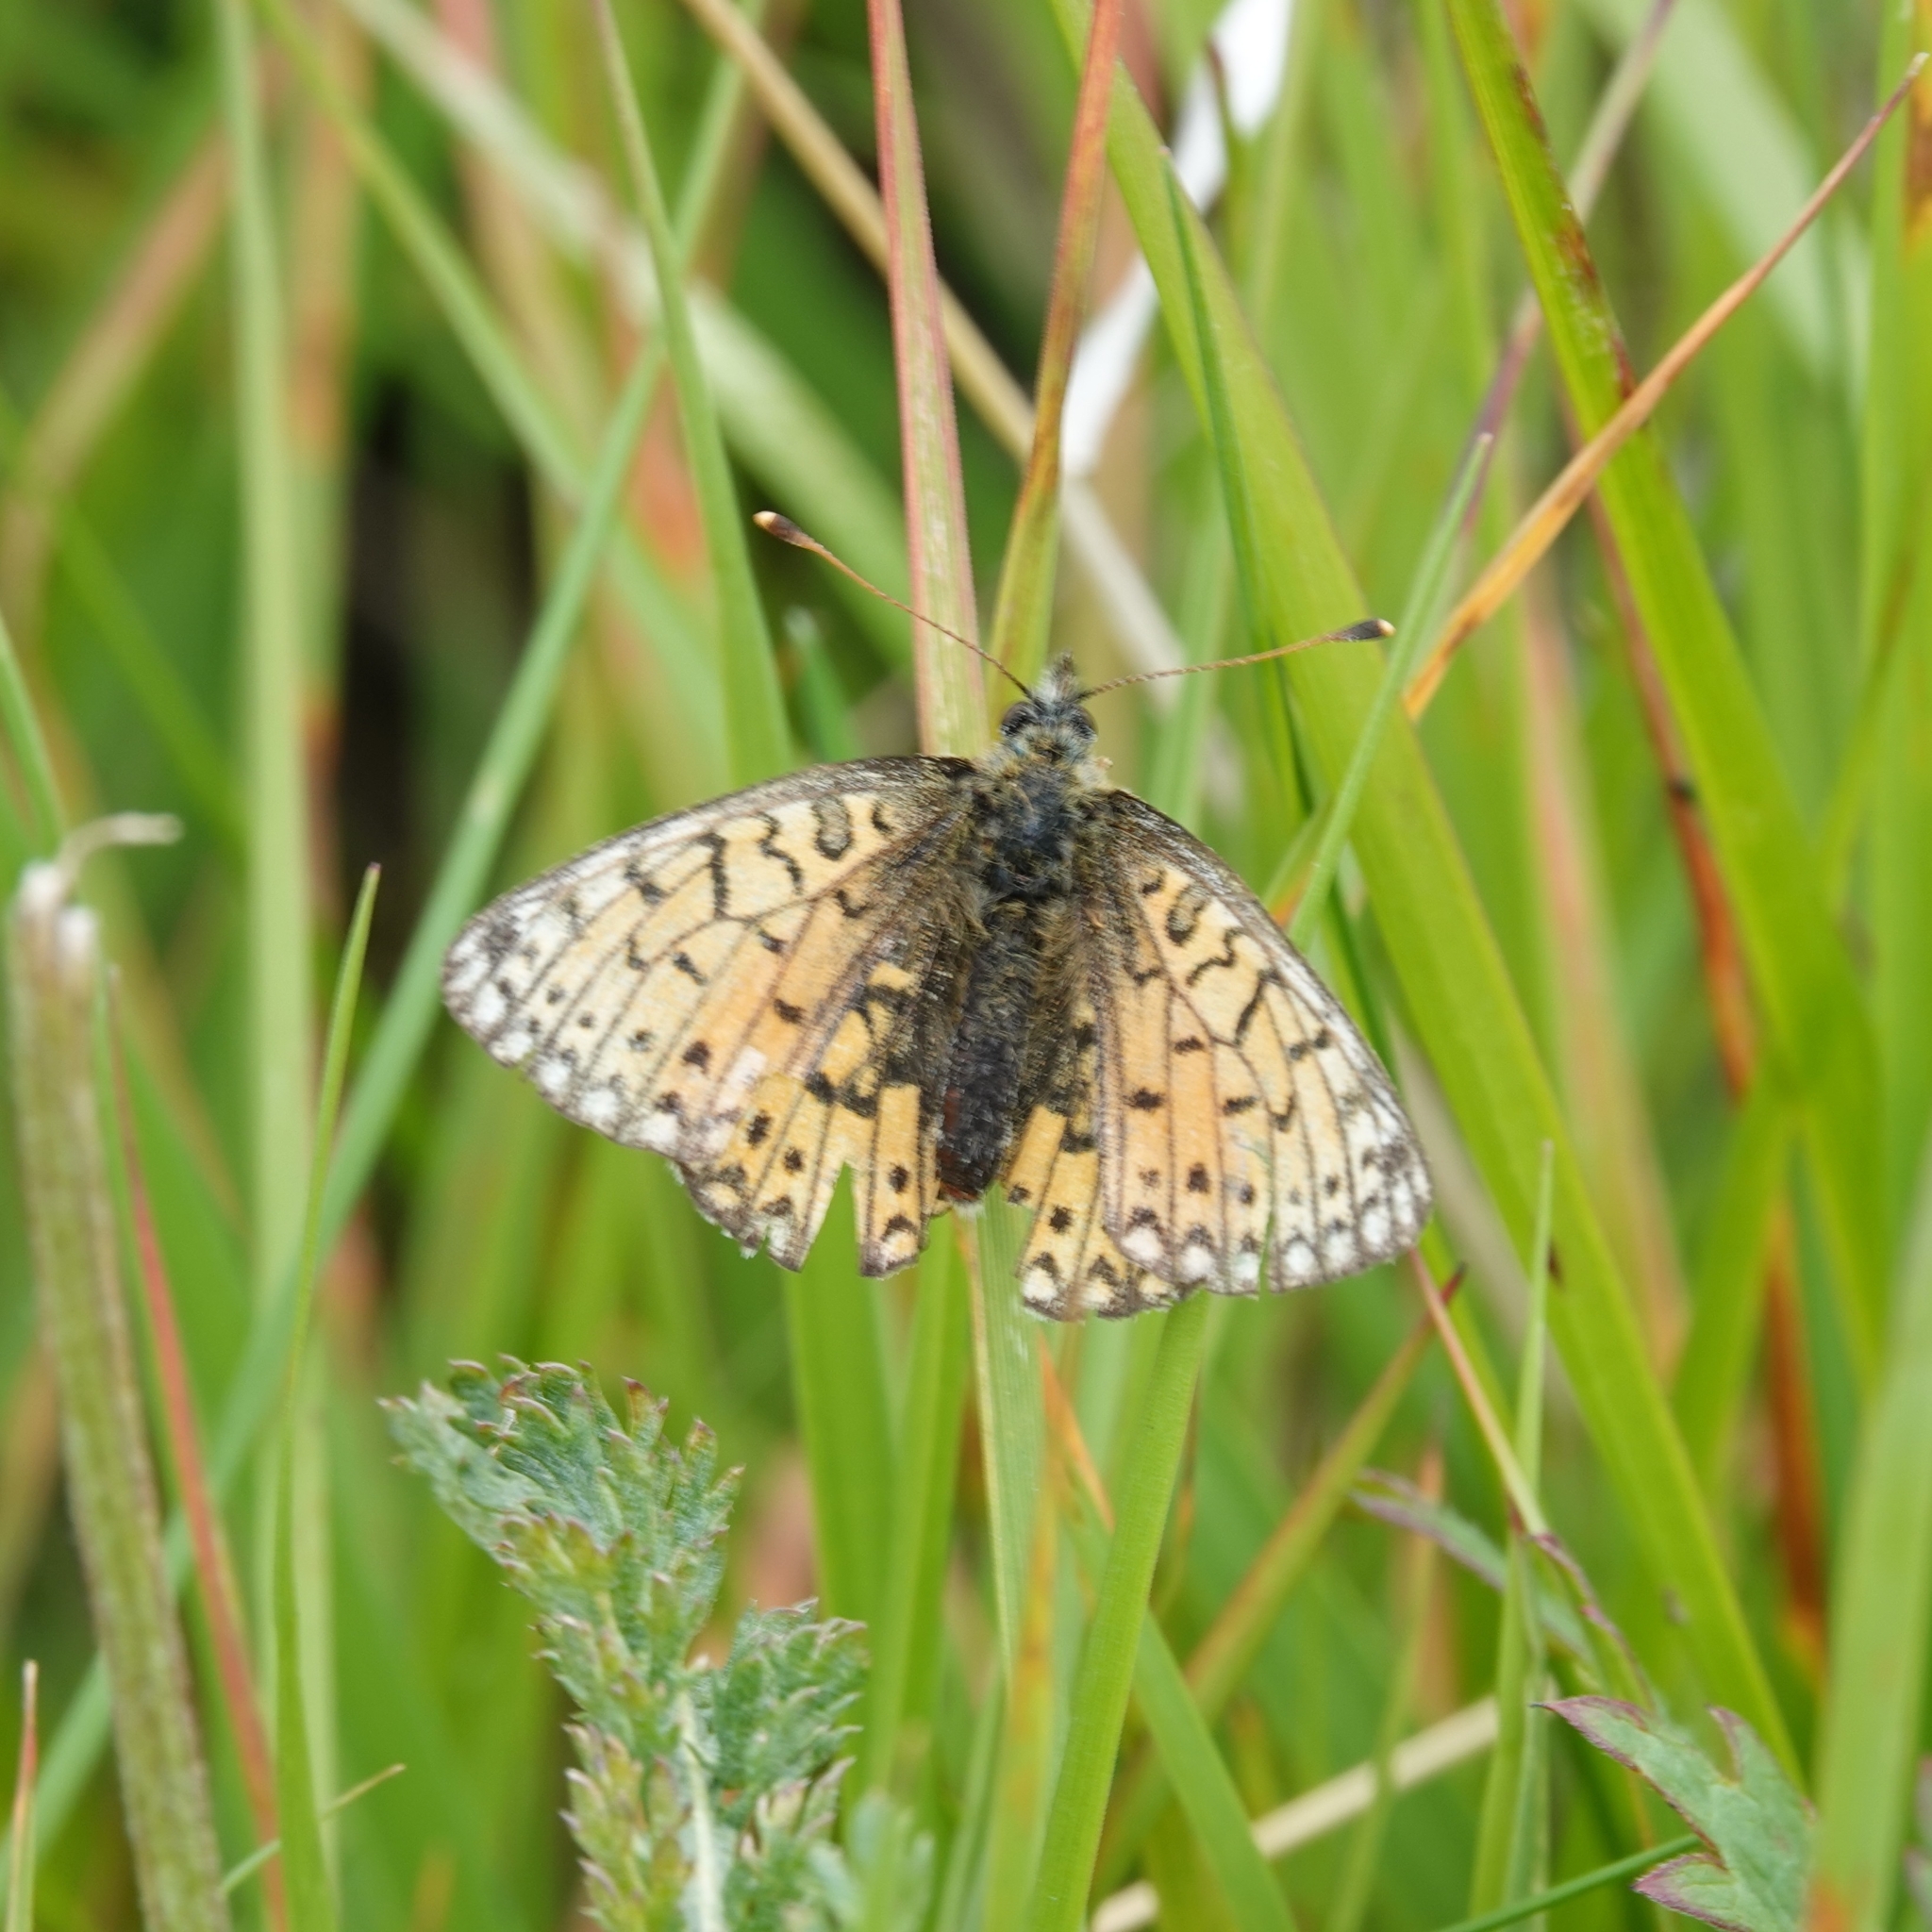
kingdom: Animalia
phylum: Arthropoda
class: Insecta
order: Lepidoptera
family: Nymphalidae
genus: Boloria
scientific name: Boloria selene
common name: Small pearl-bordered fritillary
